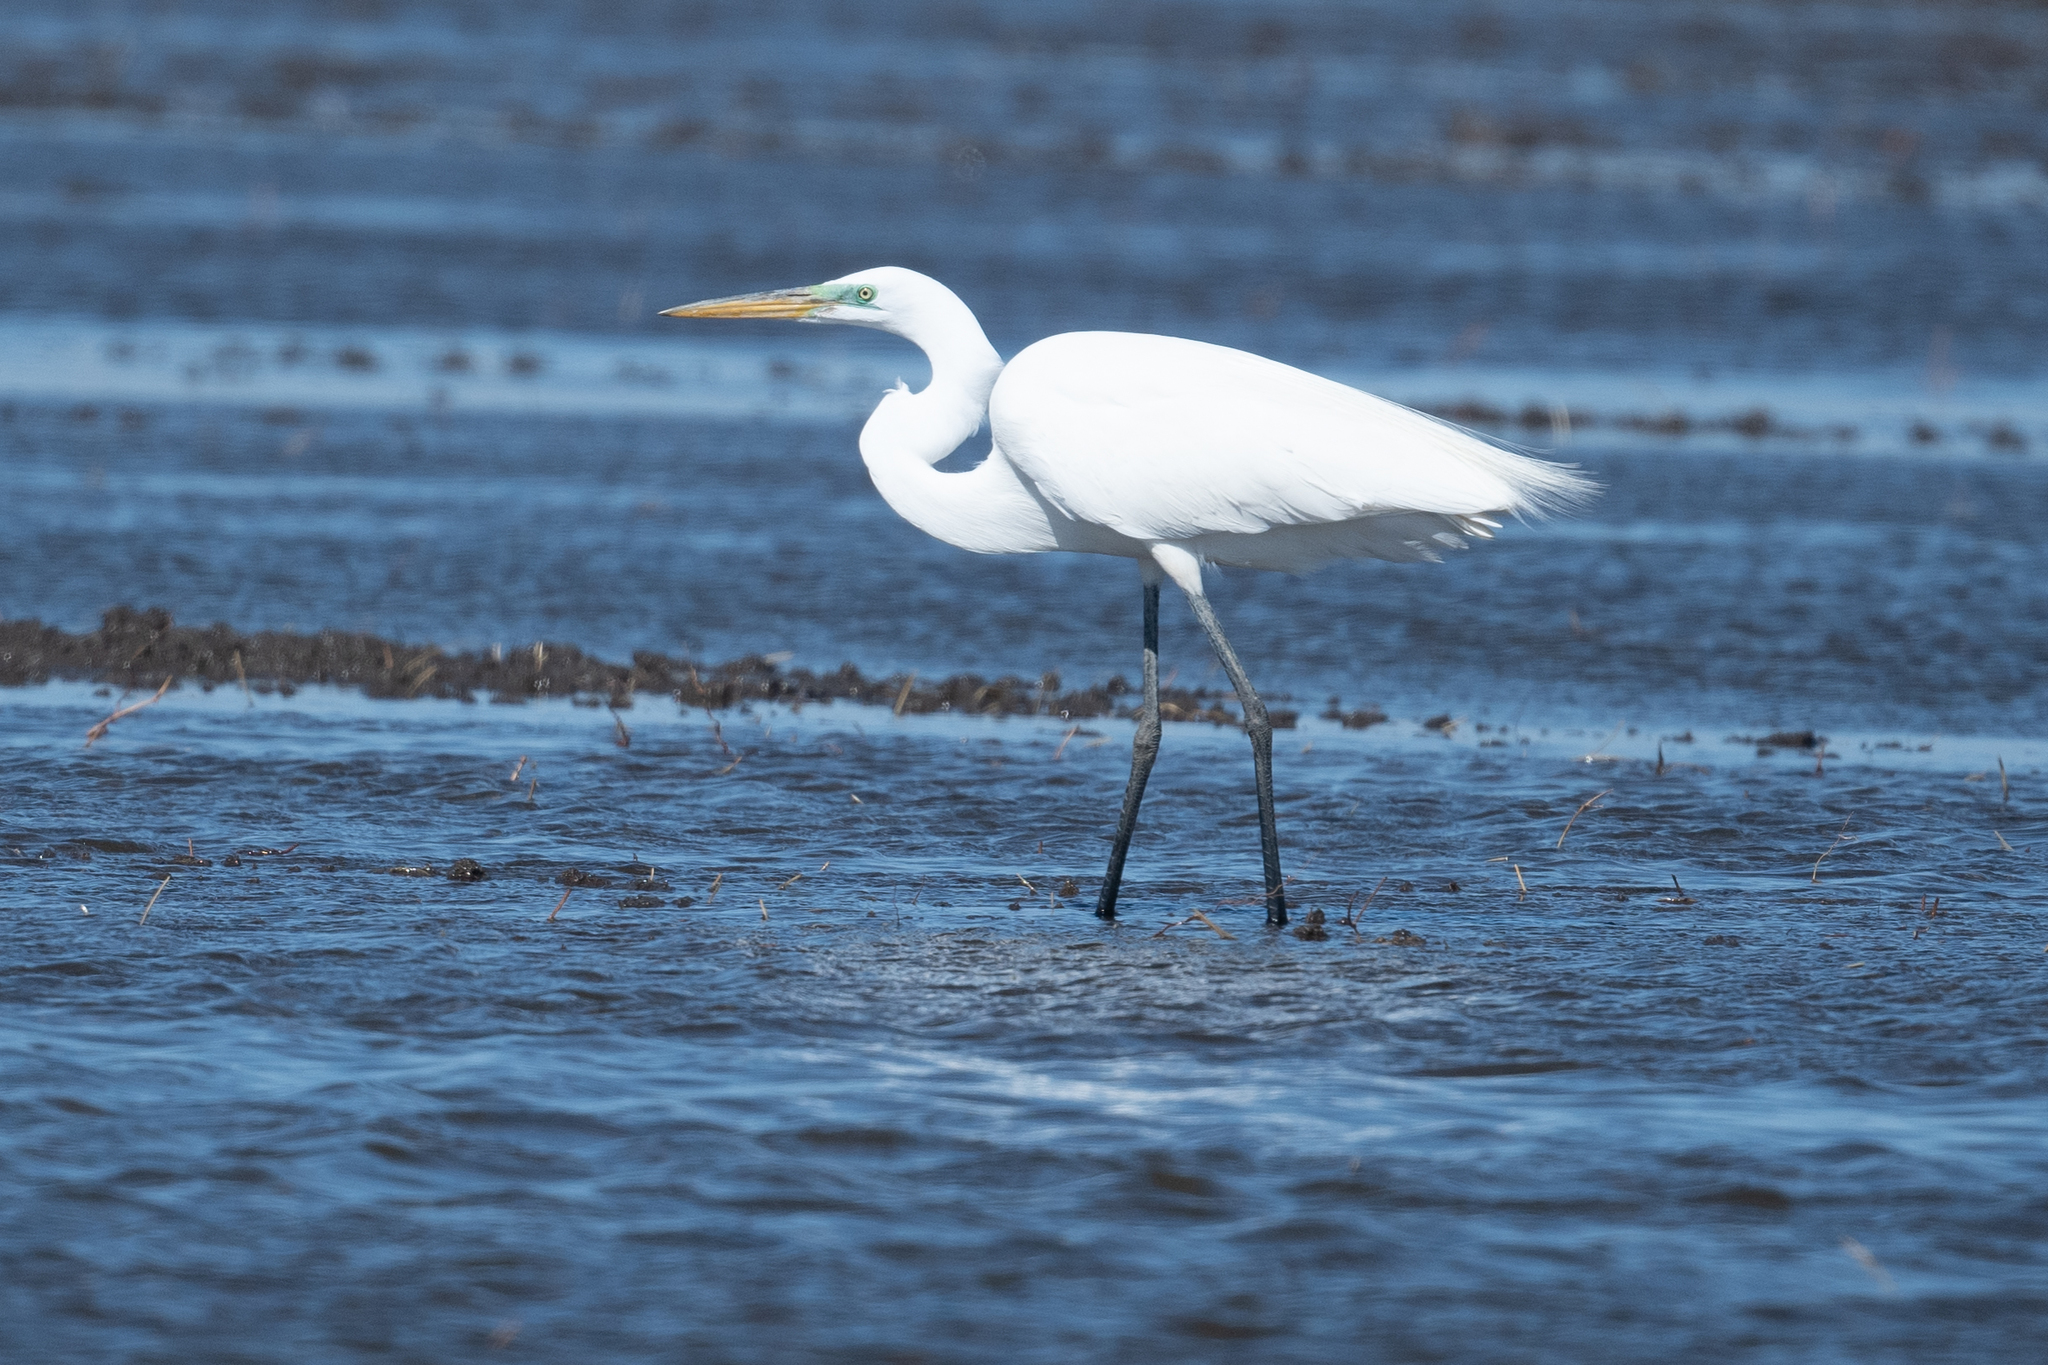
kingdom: Animalia
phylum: Chordata
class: Aves
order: Pelecaniformes
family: Ardeidae
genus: Ardea
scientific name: Ardea alba
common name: Great egret
